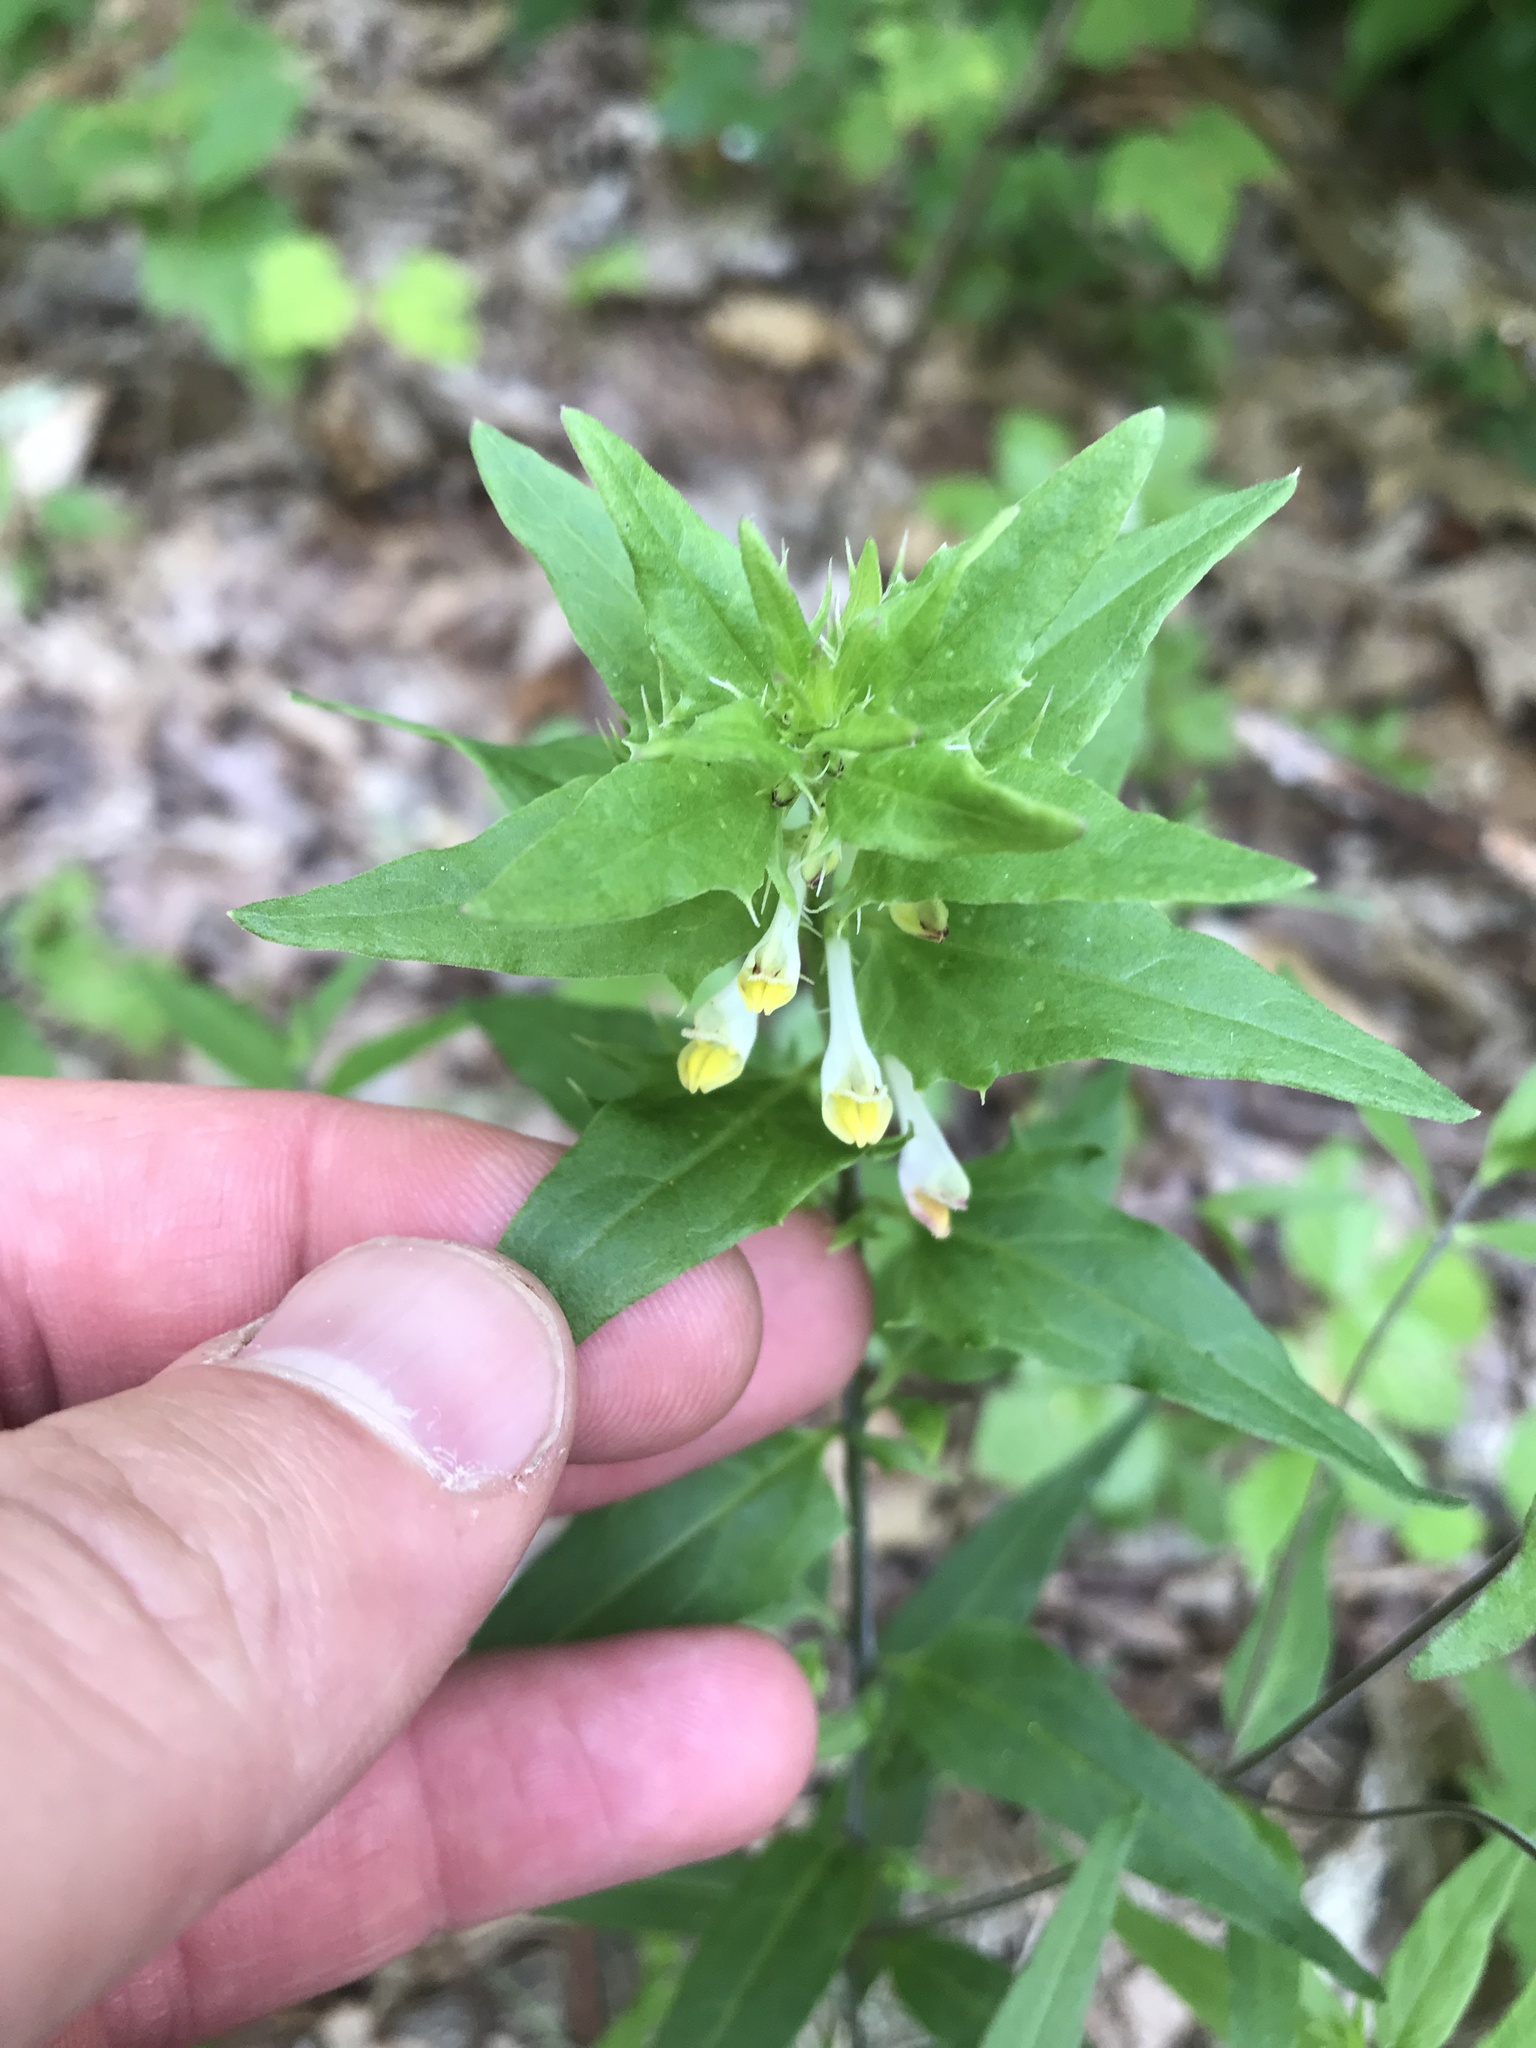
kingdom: Plantae
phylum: Tracheophyta
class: Magnoliopsida
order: Lamiales
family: Orobanchaceae
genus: Melampyrum
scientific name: Melampyrum lineare
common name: American cow-wheat
